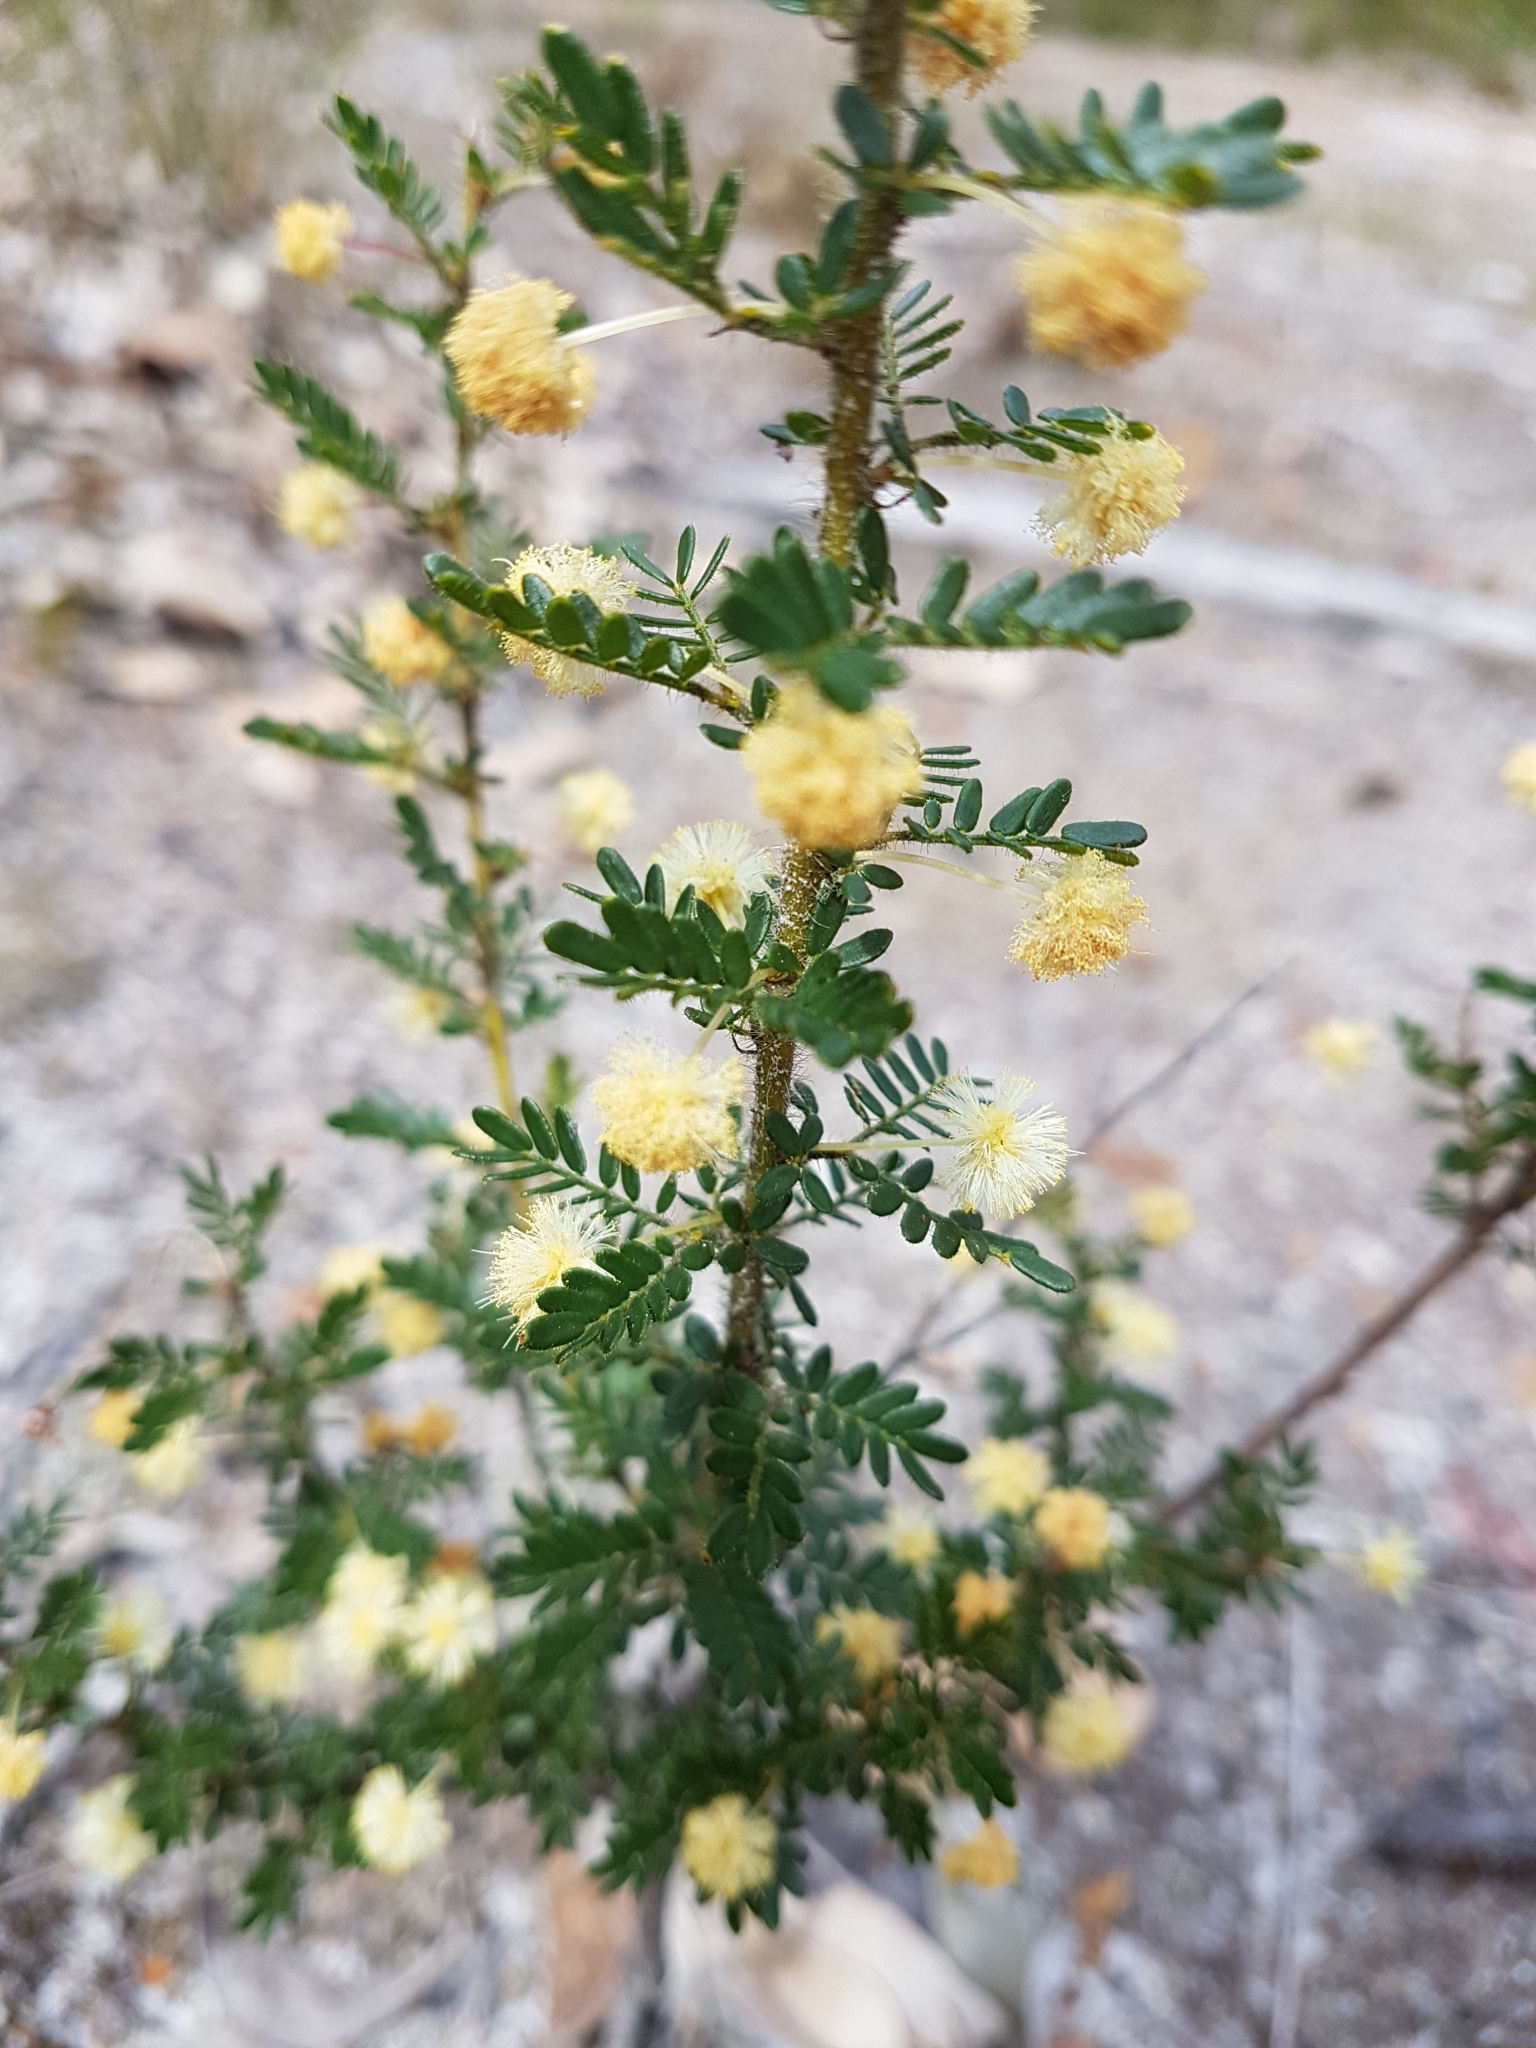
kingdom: Plantae
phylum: Tracheophyta
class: Magnoliopsida
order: Fabales
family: Fabaceae
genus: Acacia
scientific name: Acacia browniana
